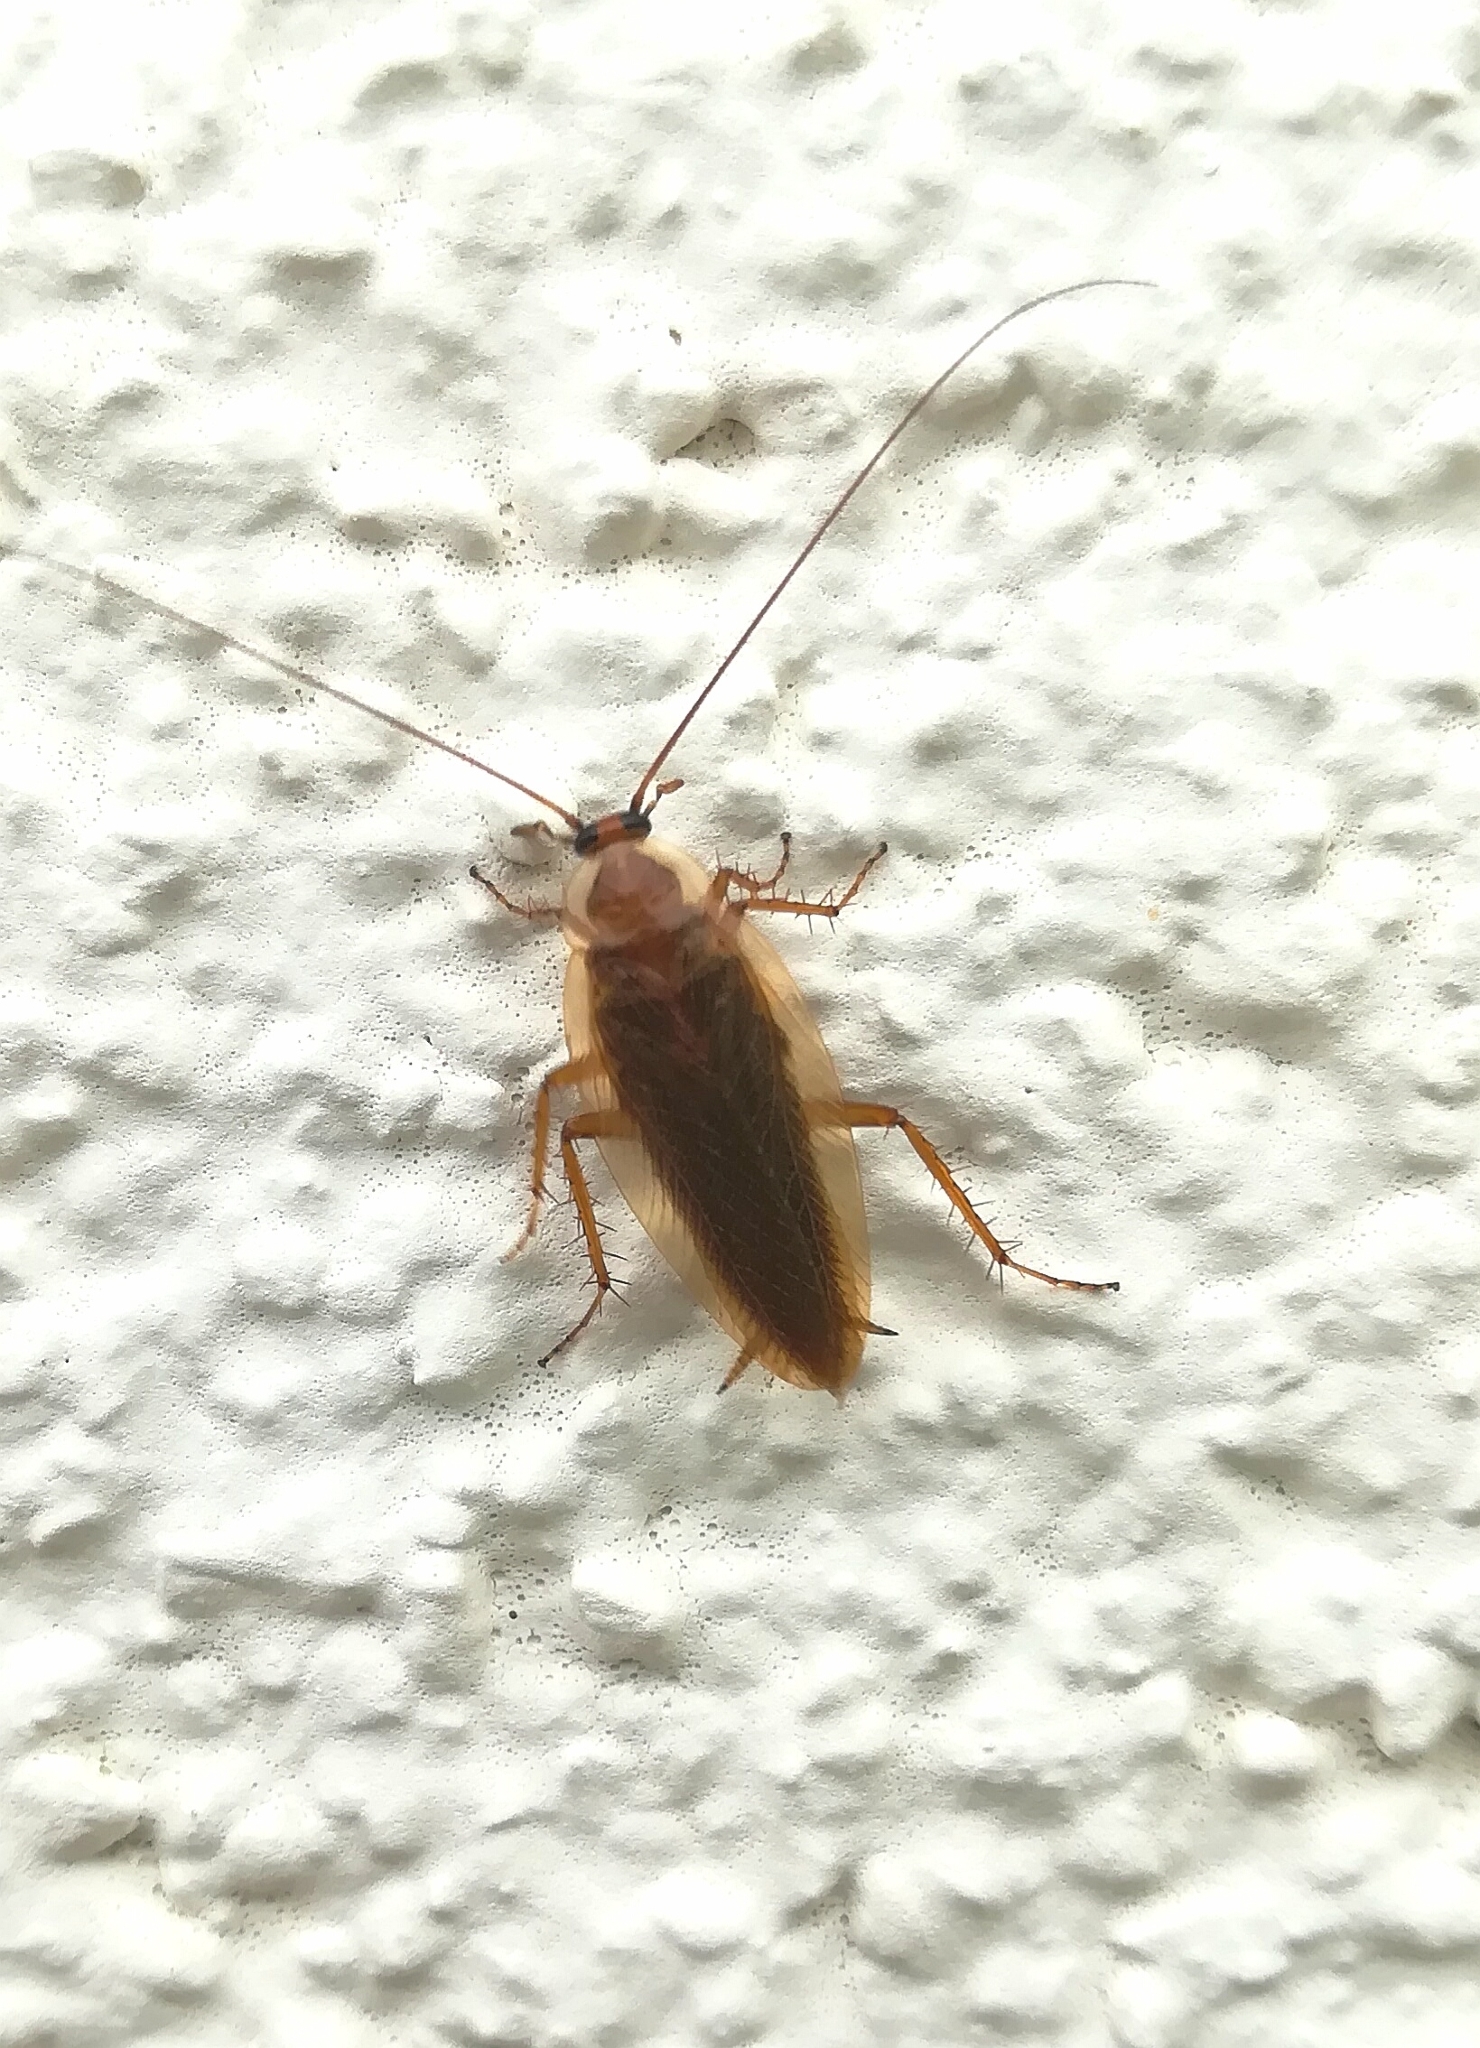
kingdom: Animalia
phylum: Arthropoda
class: Insecta
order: Blattodea
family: Ectobiidae
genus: Ectobius
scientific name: Ectobius vittiventris
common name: Garden cockroach
